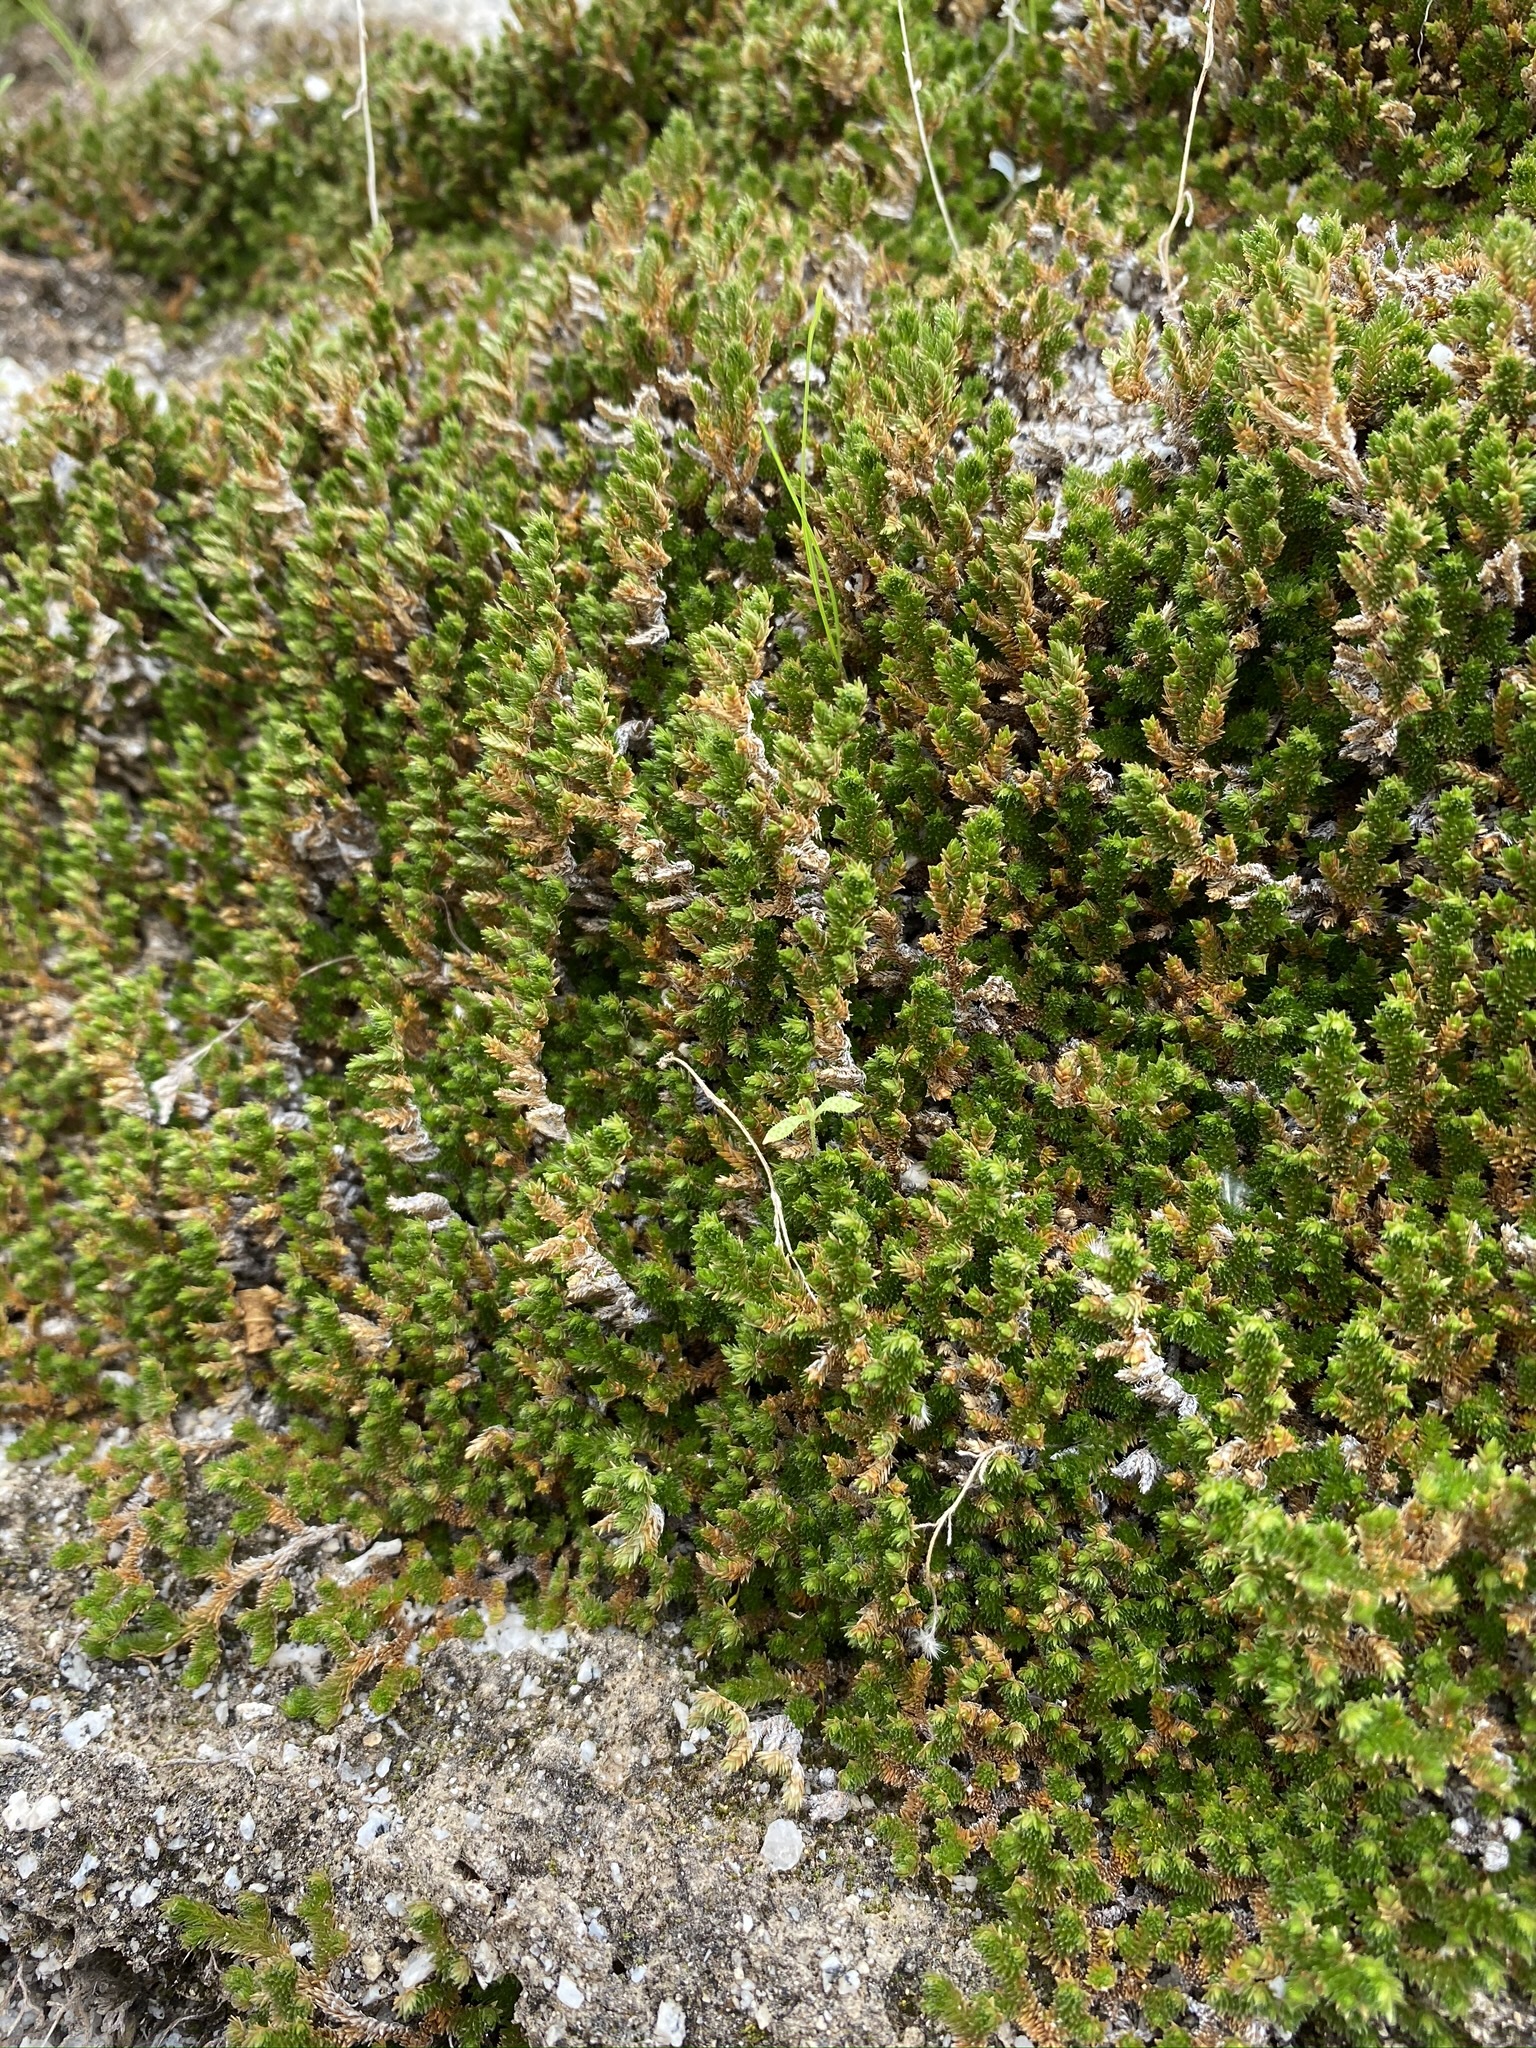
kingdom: Plantae
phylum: Tracheophyta
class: Lycopodiopsida
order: Selaginellales
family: Selaginellaceae
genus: Selaginella
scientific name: Selaginella eremophila
